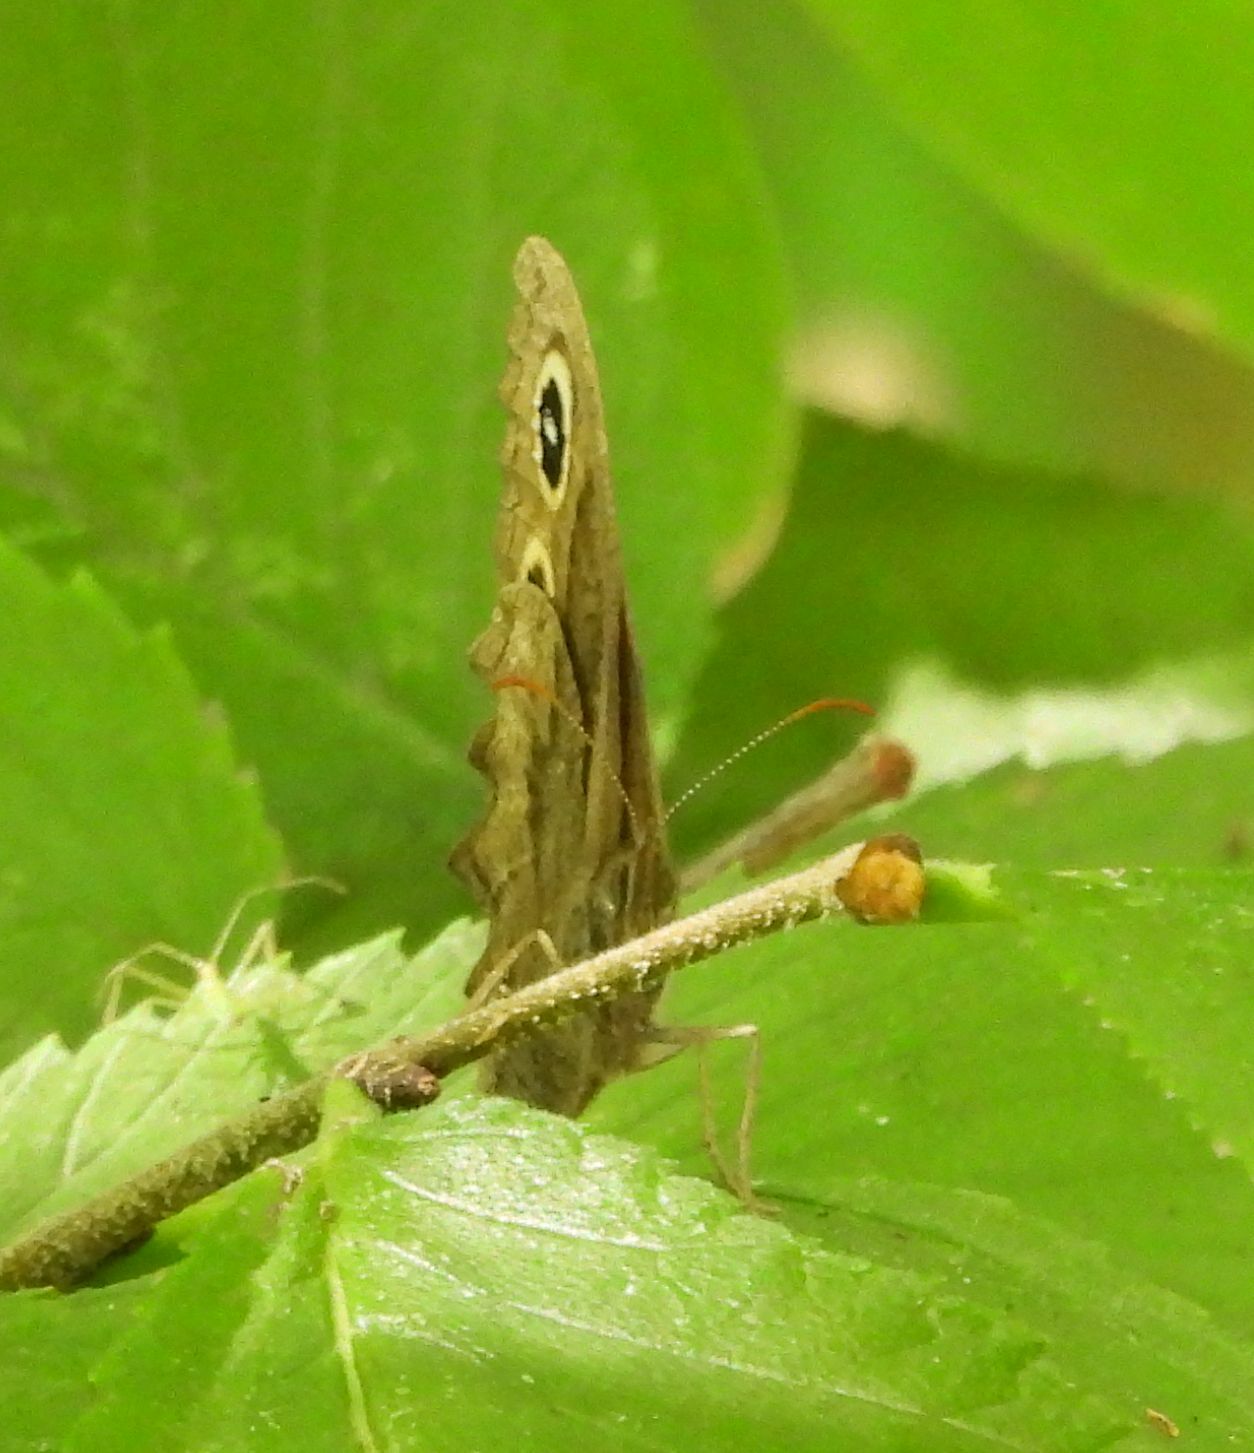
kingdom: Animalia
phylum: Arthropoda
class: Insecta
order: Lepidoptera
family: Nymphalidae
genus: Cercyonis
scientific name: Cercyonis pegala
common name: Common wood-nymph
